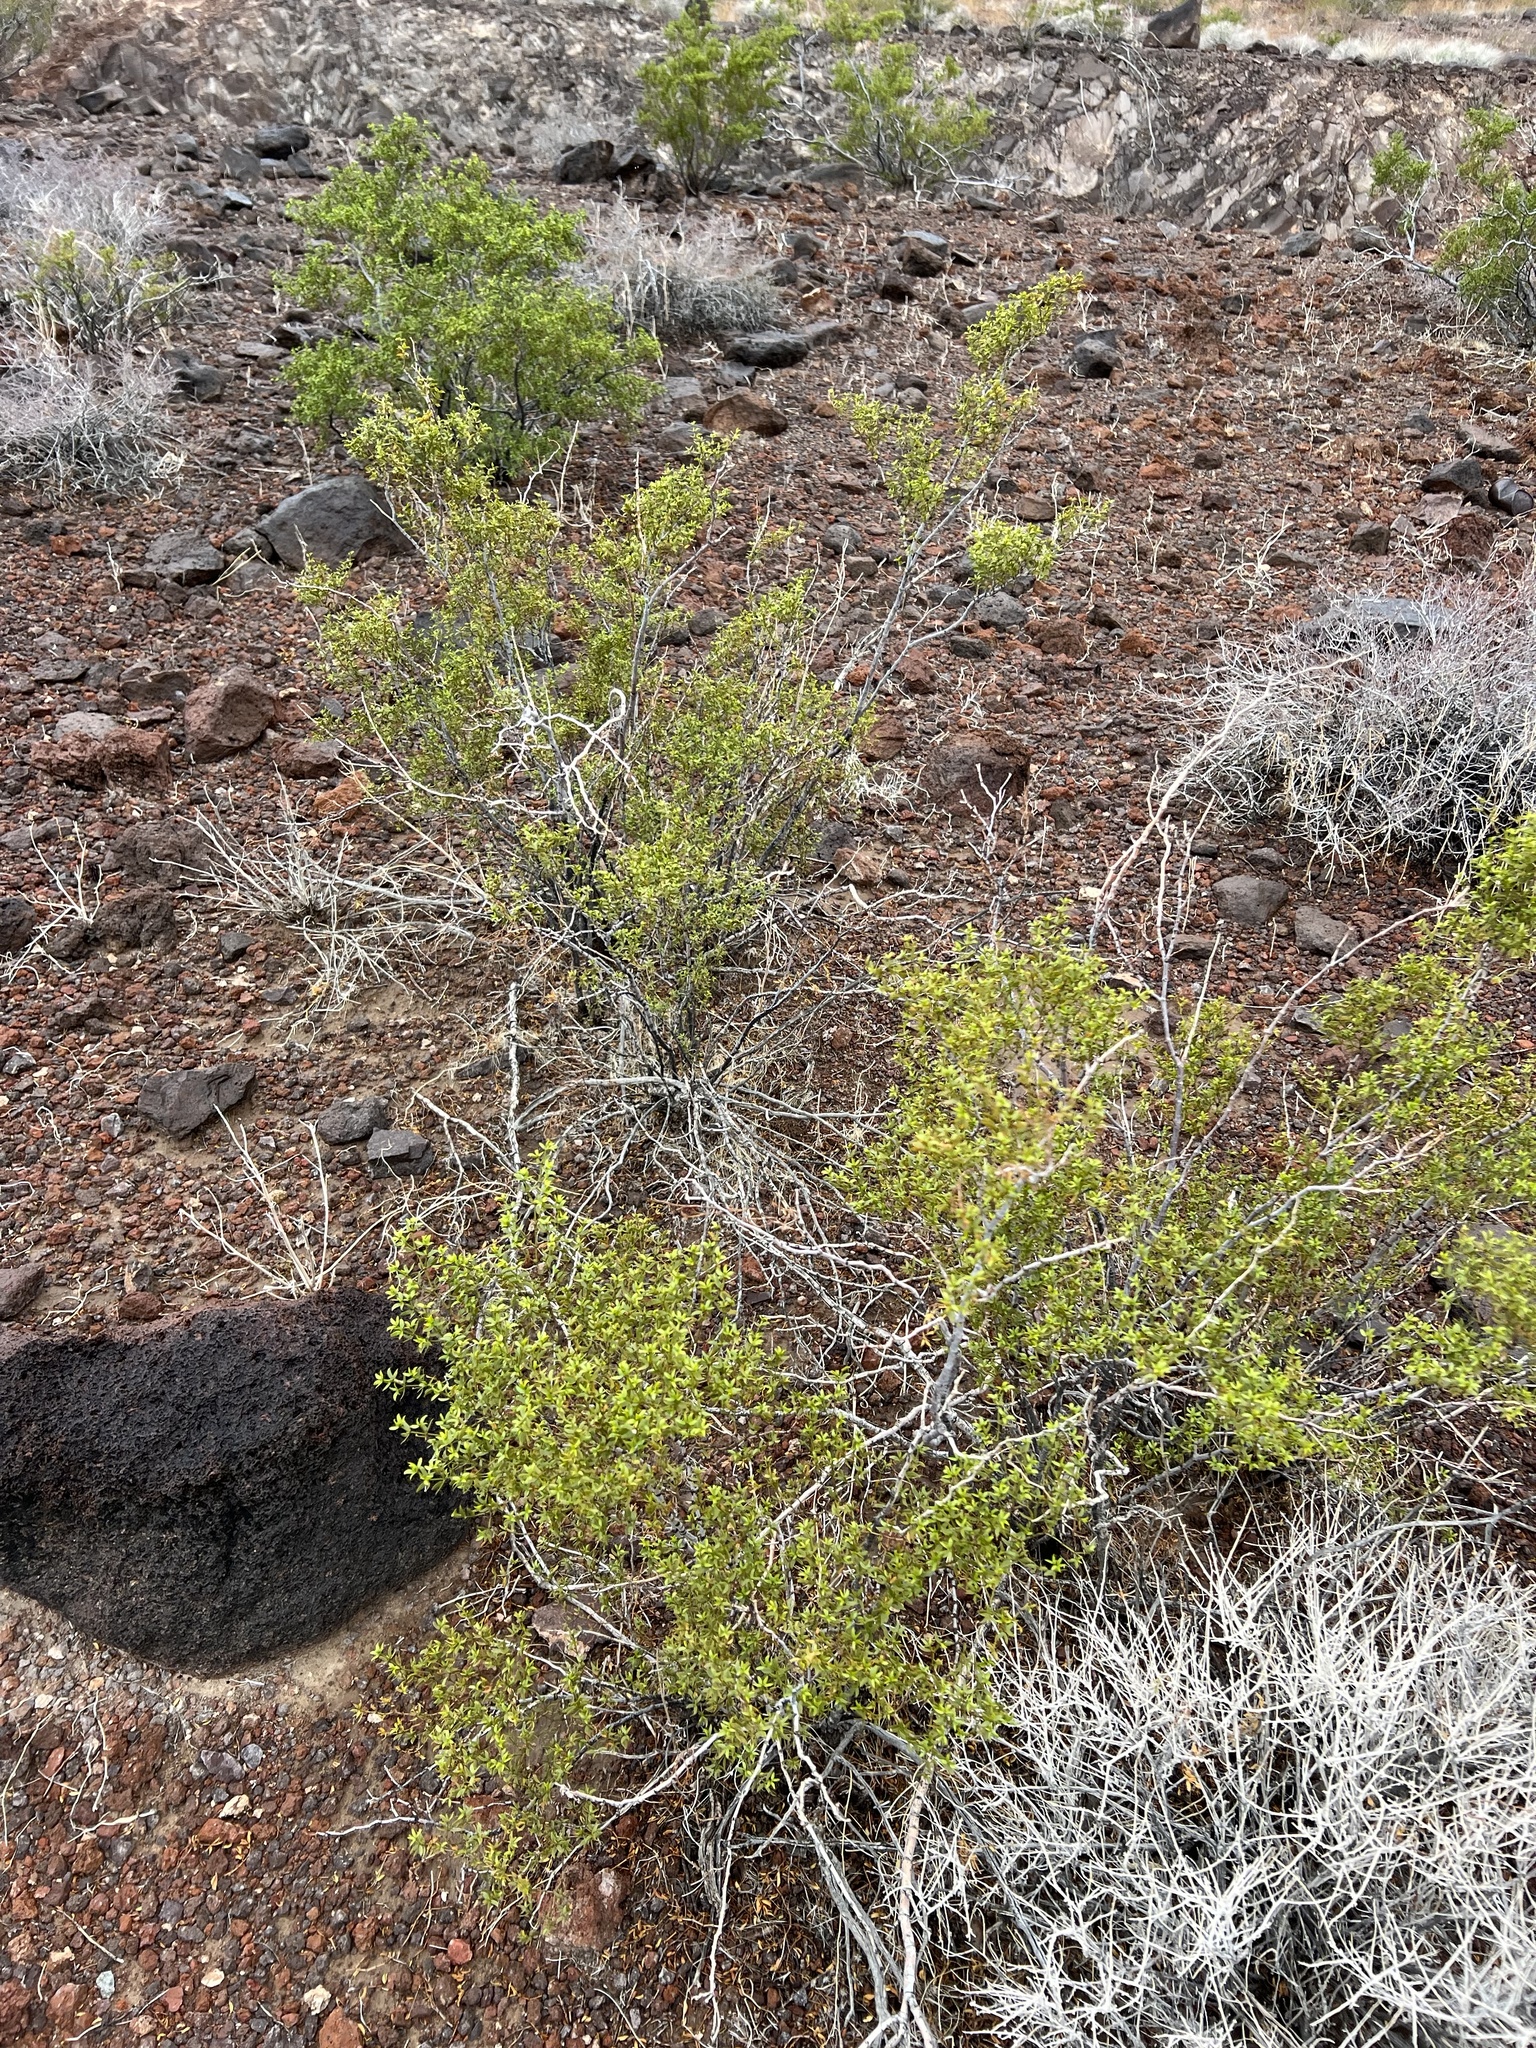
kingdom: Plantae
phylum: Tracheophyta
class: Magnoliopsida
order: Zygophyllales
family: Zygophyllaceae
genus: Larrea
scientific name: Larrea tridentata
